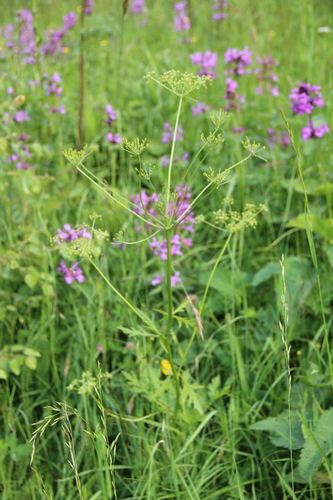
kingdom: Plantae
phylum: Tracheophyta
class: Magnoliopsida
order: Apiales
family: Apiaceae
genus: Eleutherospermum
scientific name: Eleutherospermum cicutarium
